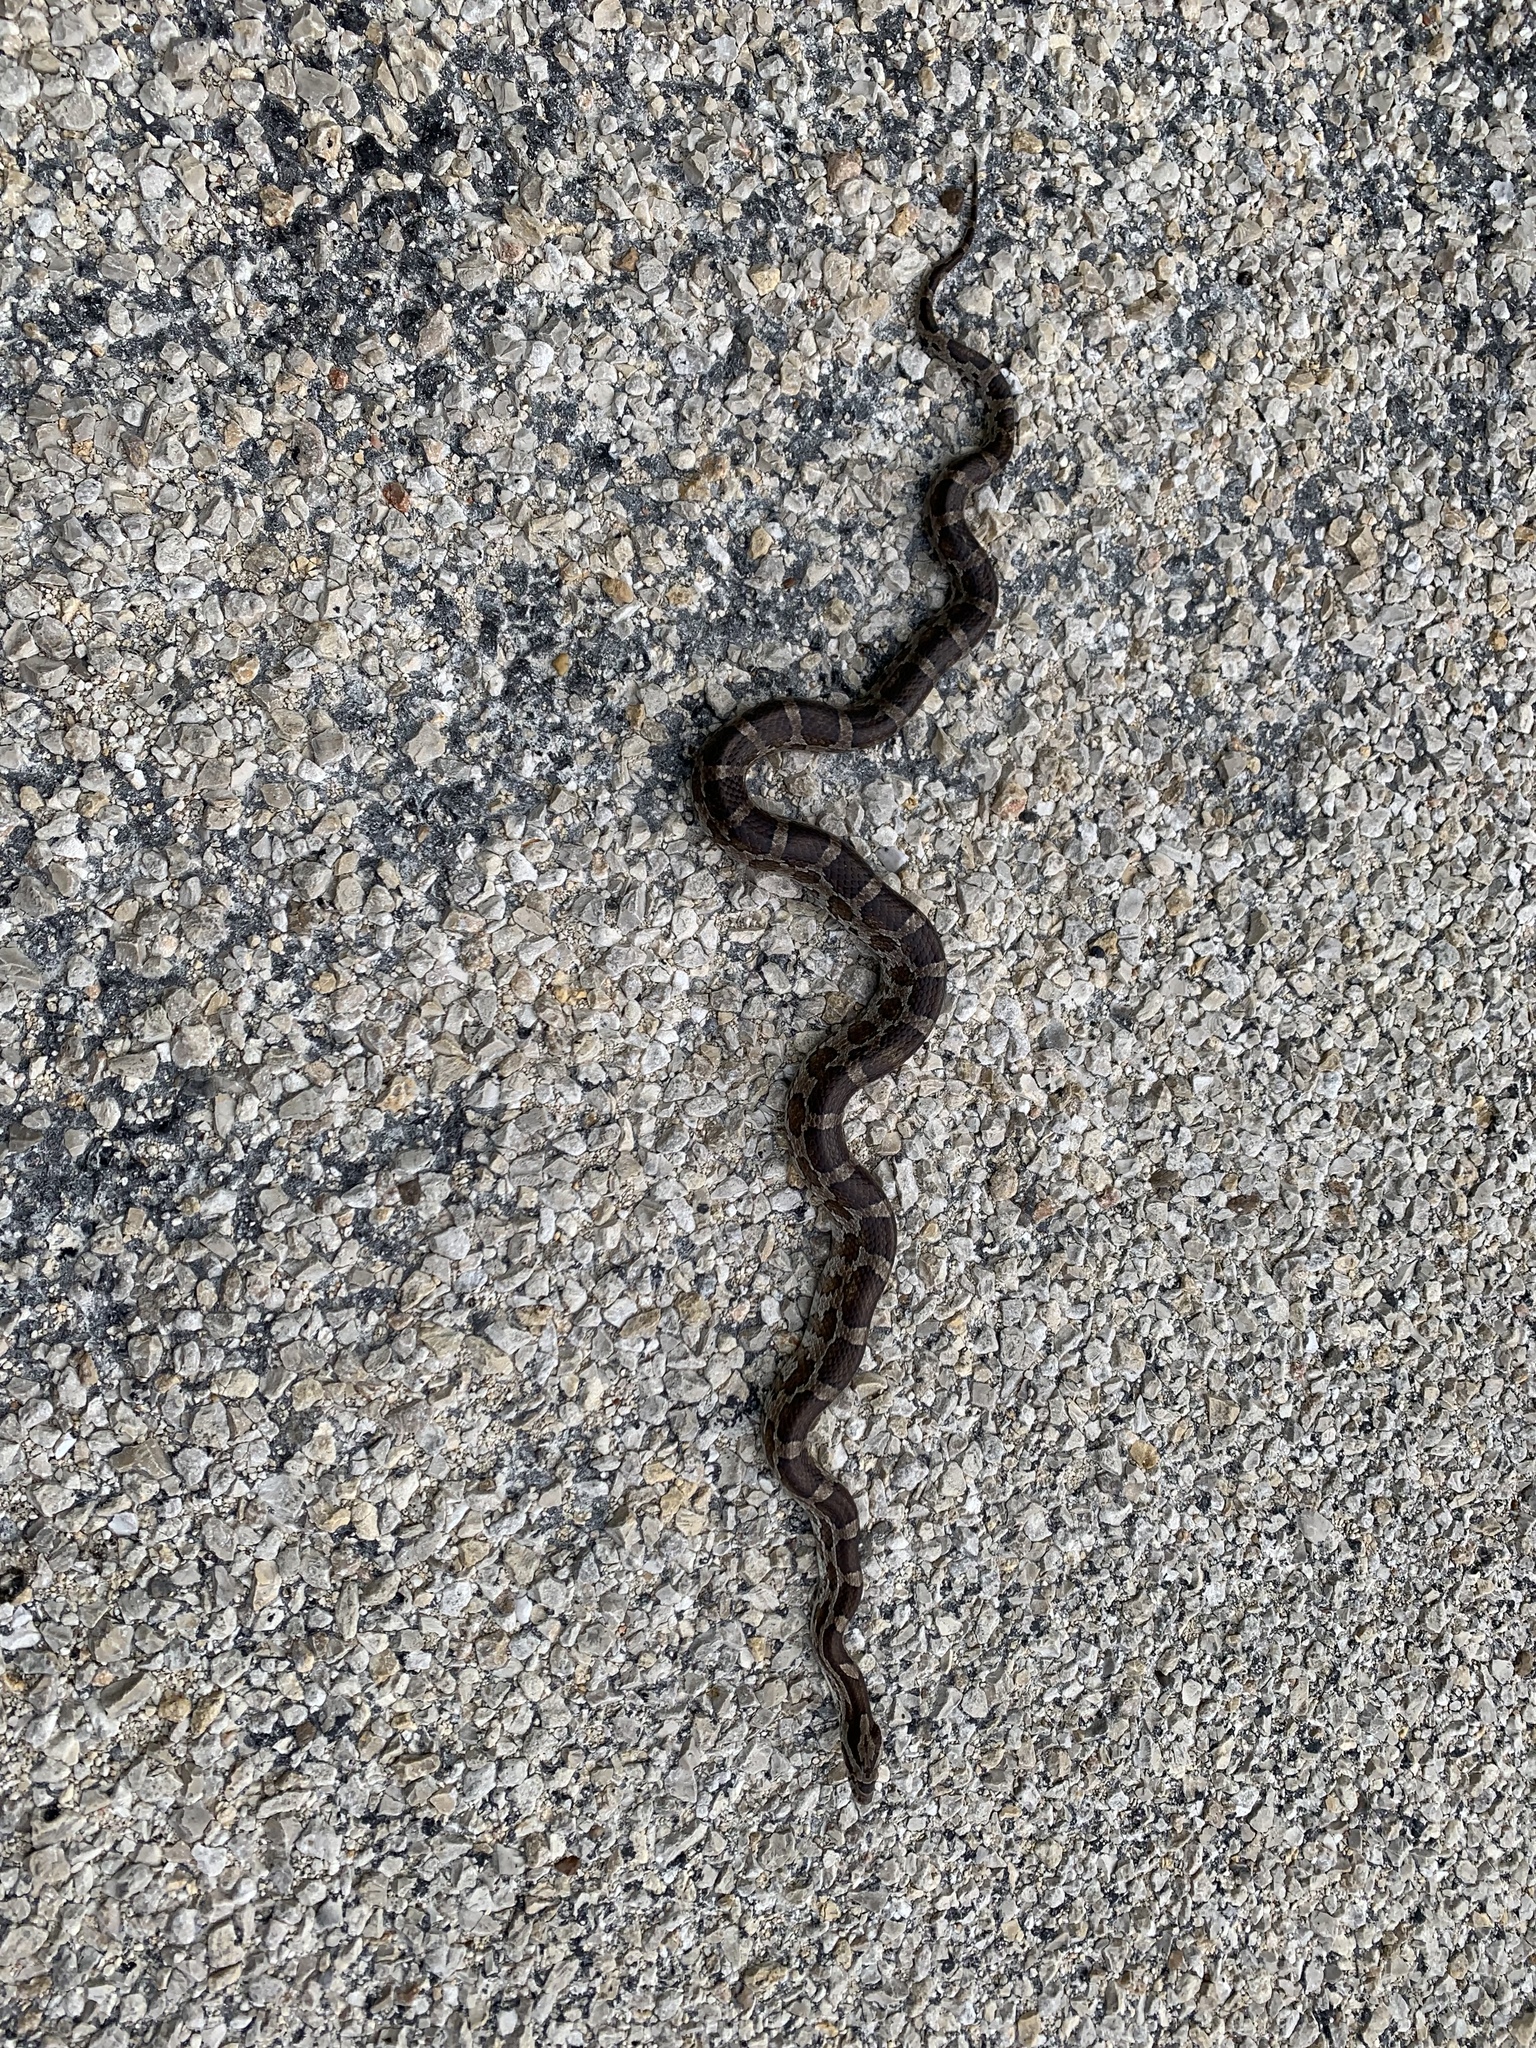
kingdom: Animalia
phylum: Chordata
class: Squamata
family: Colubridae
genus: Pantherophis
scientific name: Pantherophis emoryi
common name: Great plains rat snake
